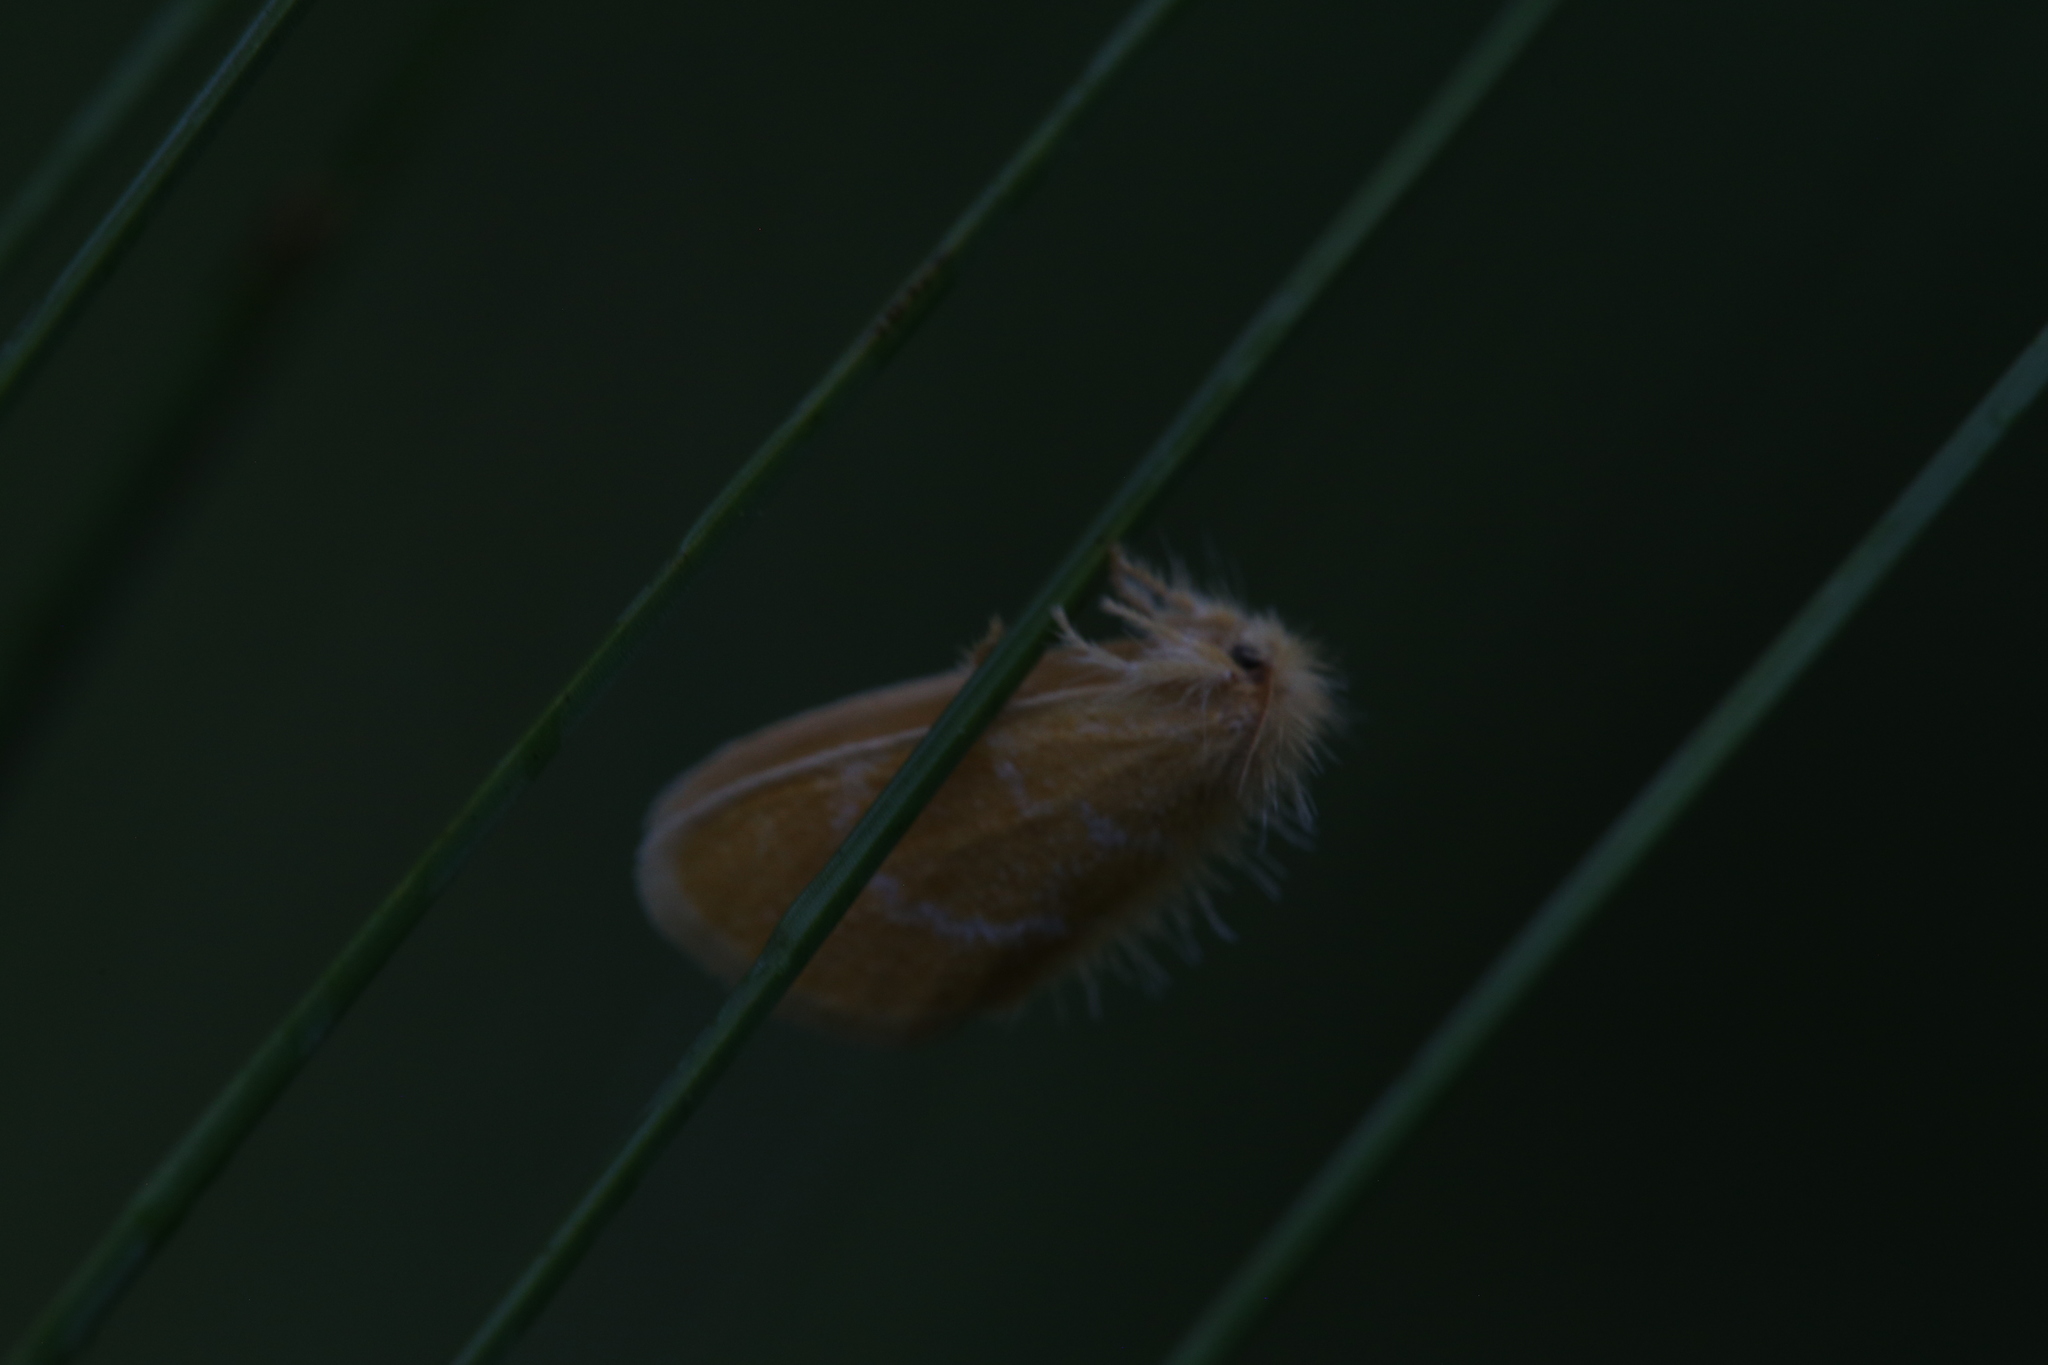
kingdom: Animalia
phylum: Arthropoda
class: Insecta
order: Lepidoptera
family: Erebidae
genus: Euproctis
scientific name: Euproctis lutea
